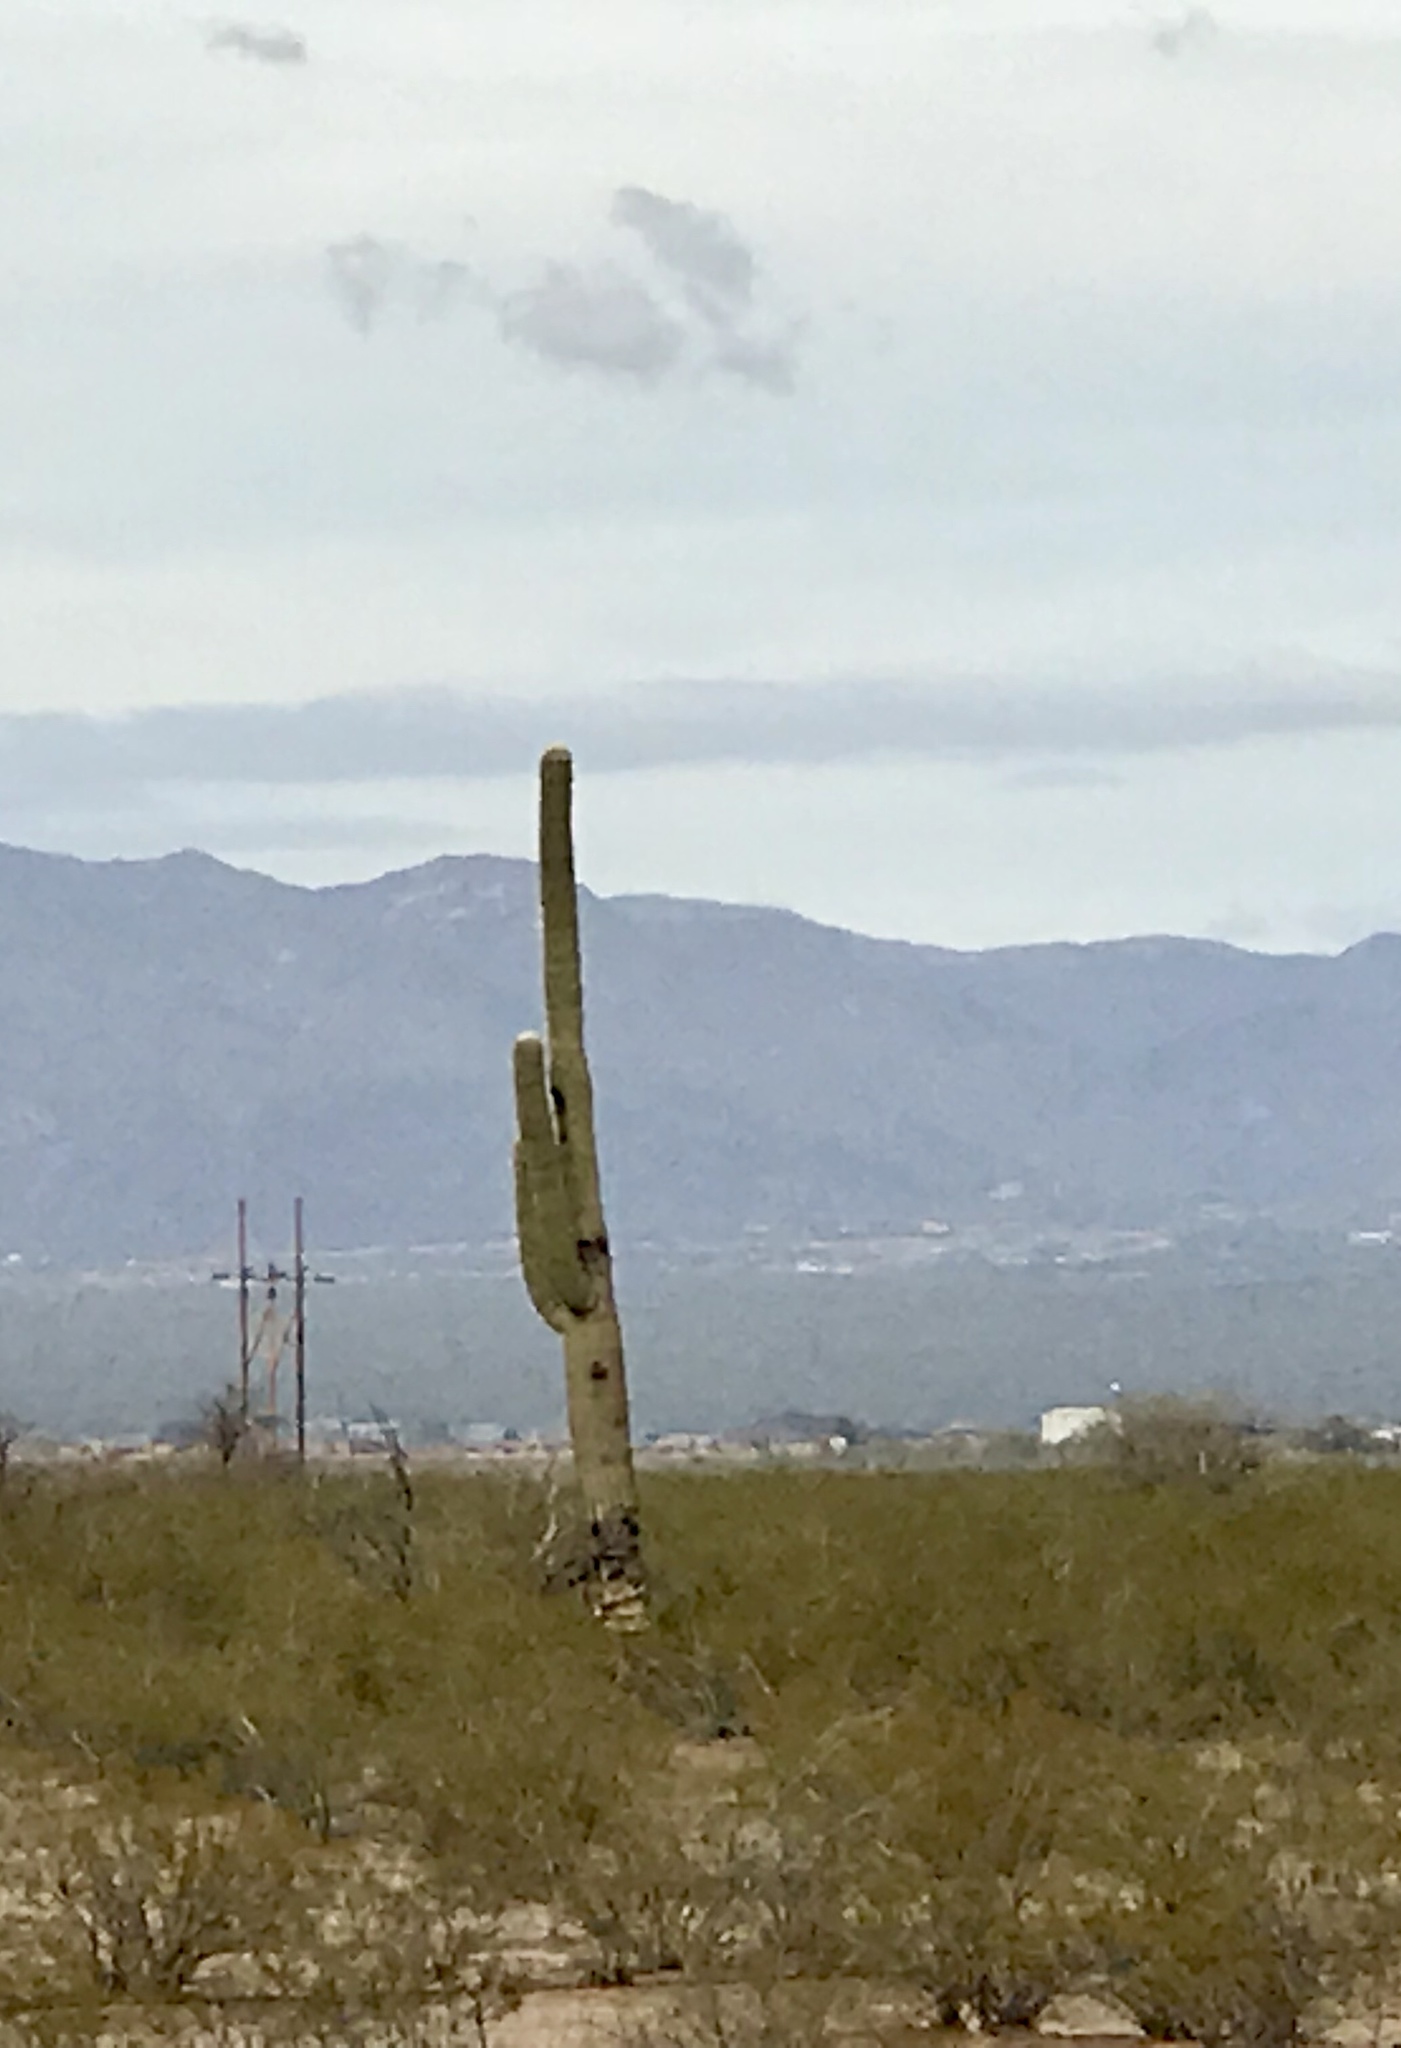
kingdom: Plantae
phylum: Tracheophyta
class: Magnoliopsida
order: Caryophyllales
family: Cactaceae
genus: Carnegiea
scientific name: Carnegiea gigantea
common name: Saguaro
